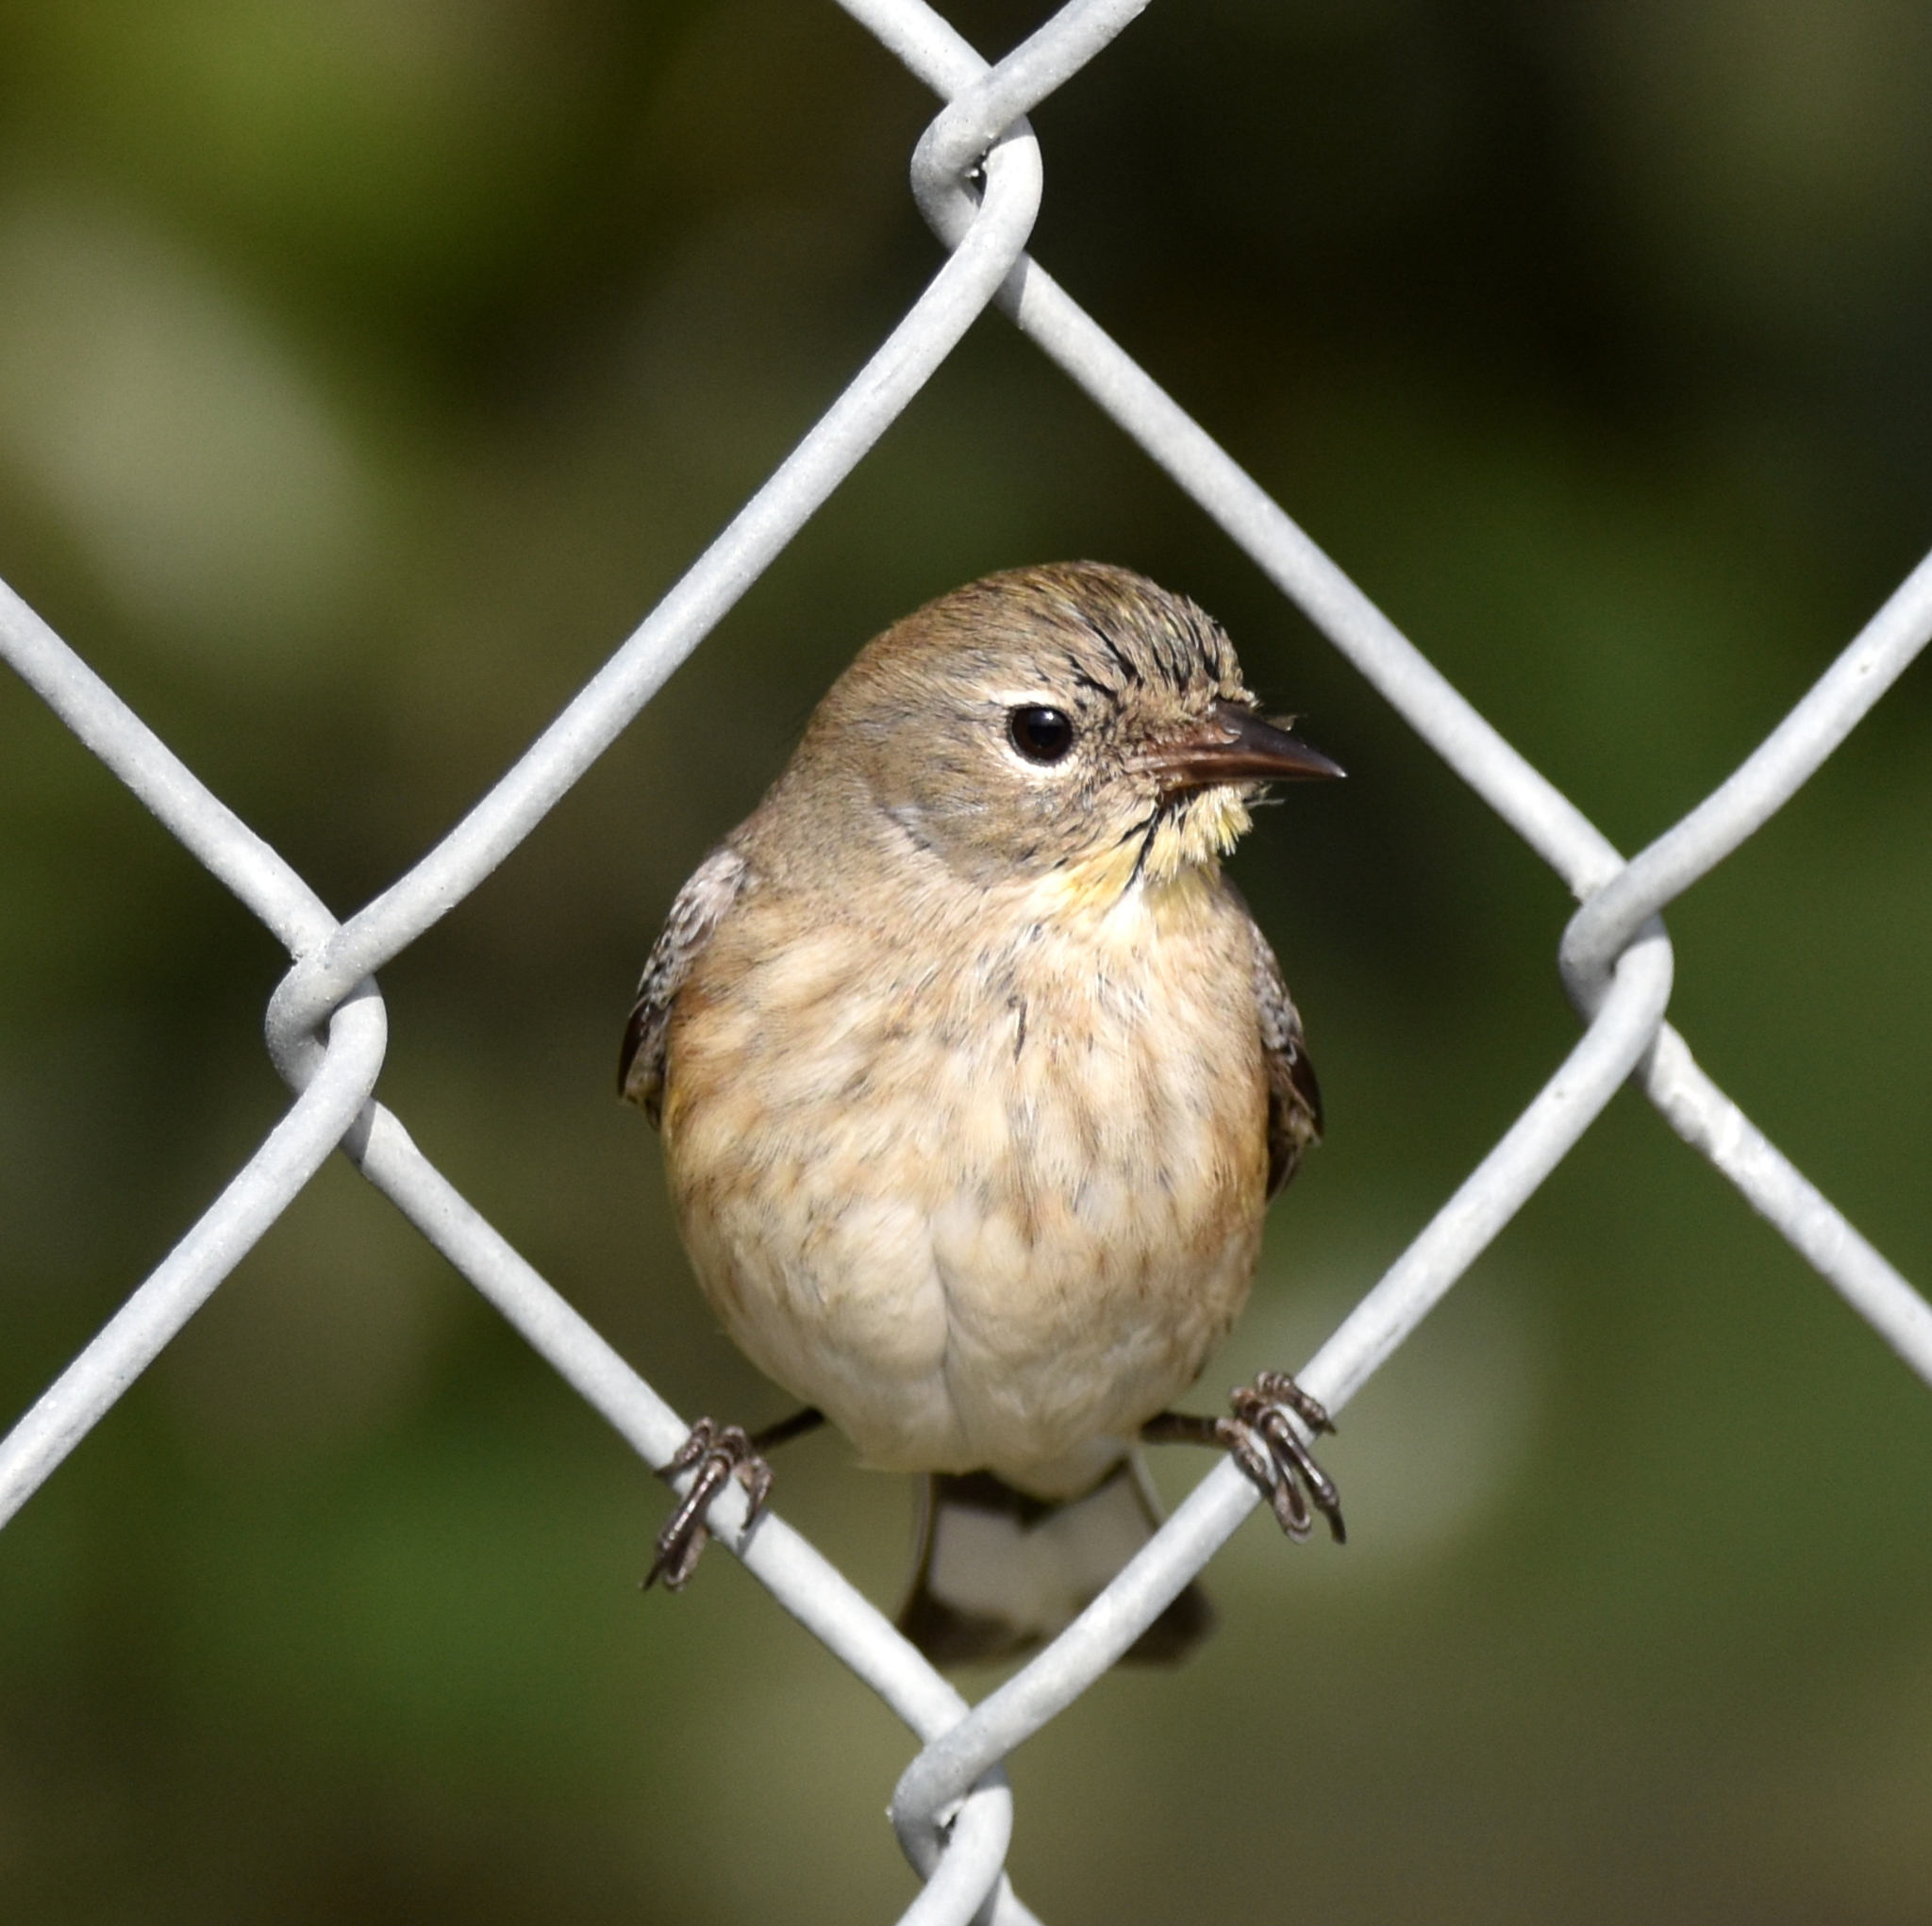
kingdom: Animalia
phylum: Chordata
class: Aves
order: Passeriformes
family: Parulidae
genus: Setophaga
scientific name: Setophaga auduboni
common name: Audubon's warbler
